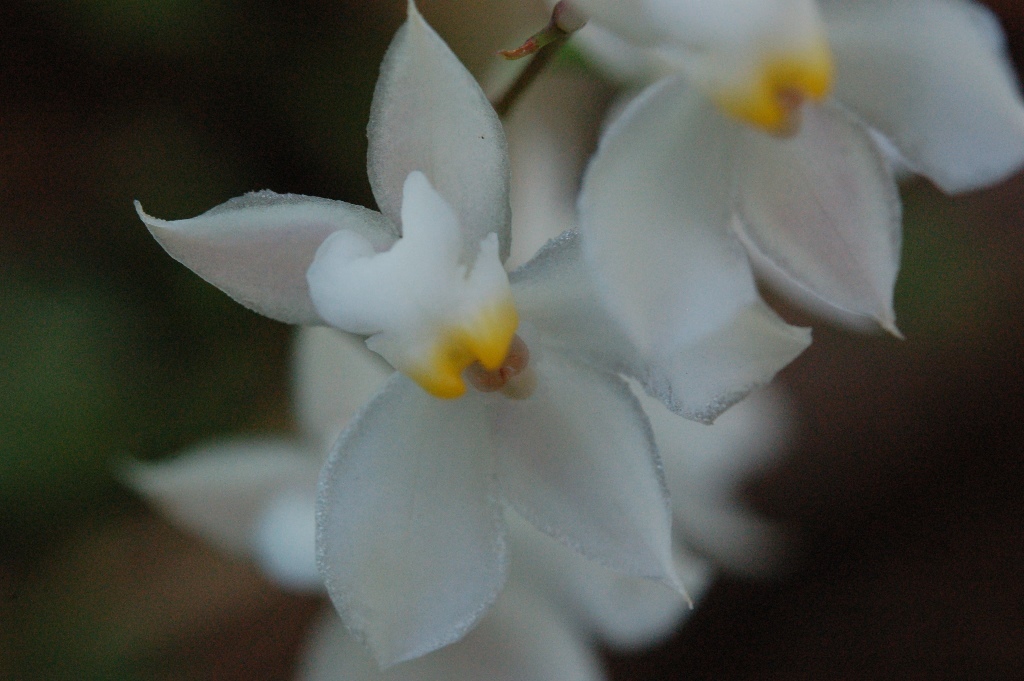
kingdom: Plantae
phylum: Tracheophyta
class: Liliopsida
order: Asparagales
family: Orchidaceae
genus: Cuitlauzina
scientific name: Cuitlauzina pulchella
